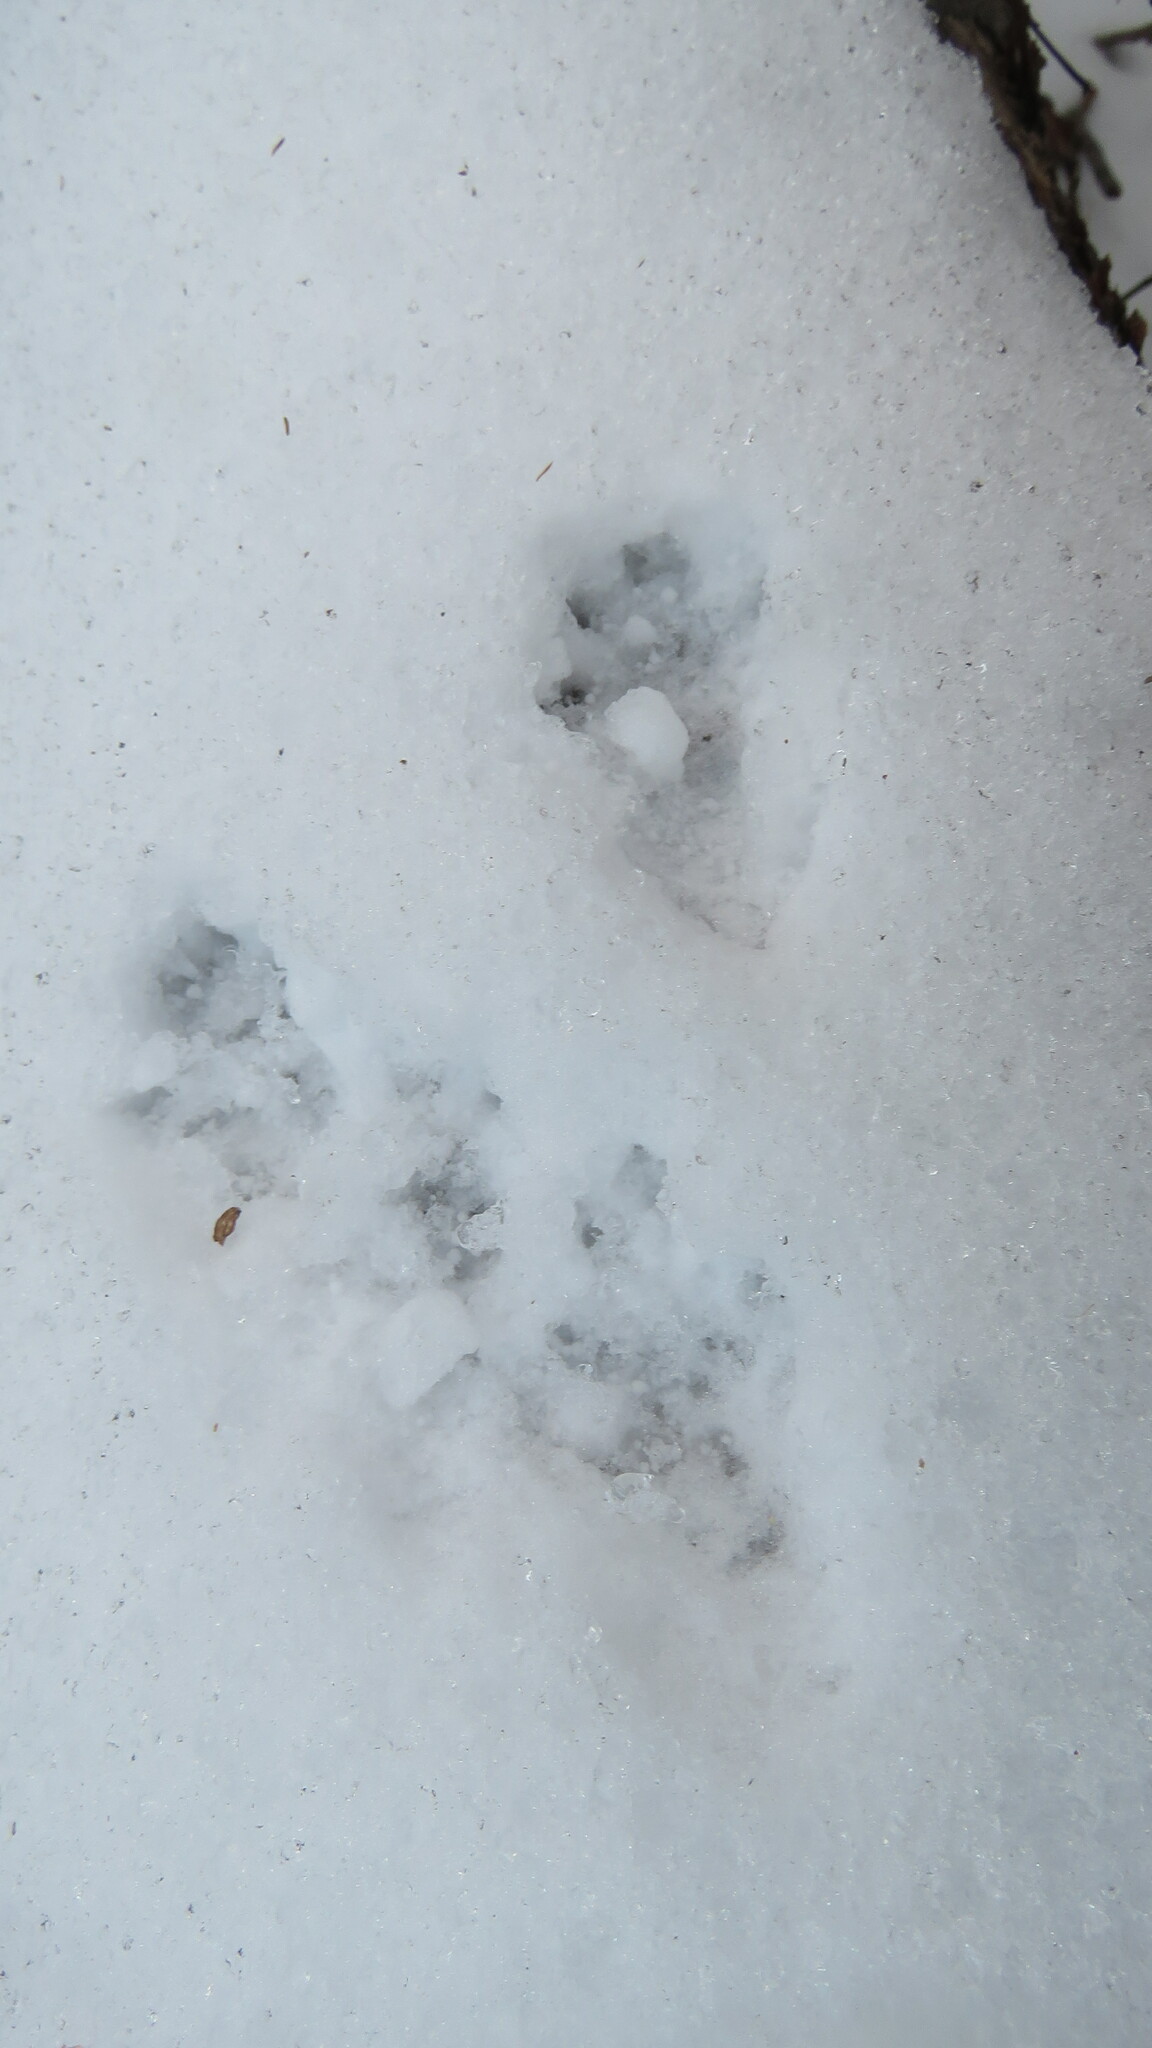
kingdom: Animalia
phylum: Chordata
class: Mammalia
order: Rodentia
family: Sciuridae
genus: Tamiasciurus
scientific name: Tamiasciurus hudsonicus
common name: Red squirrel
